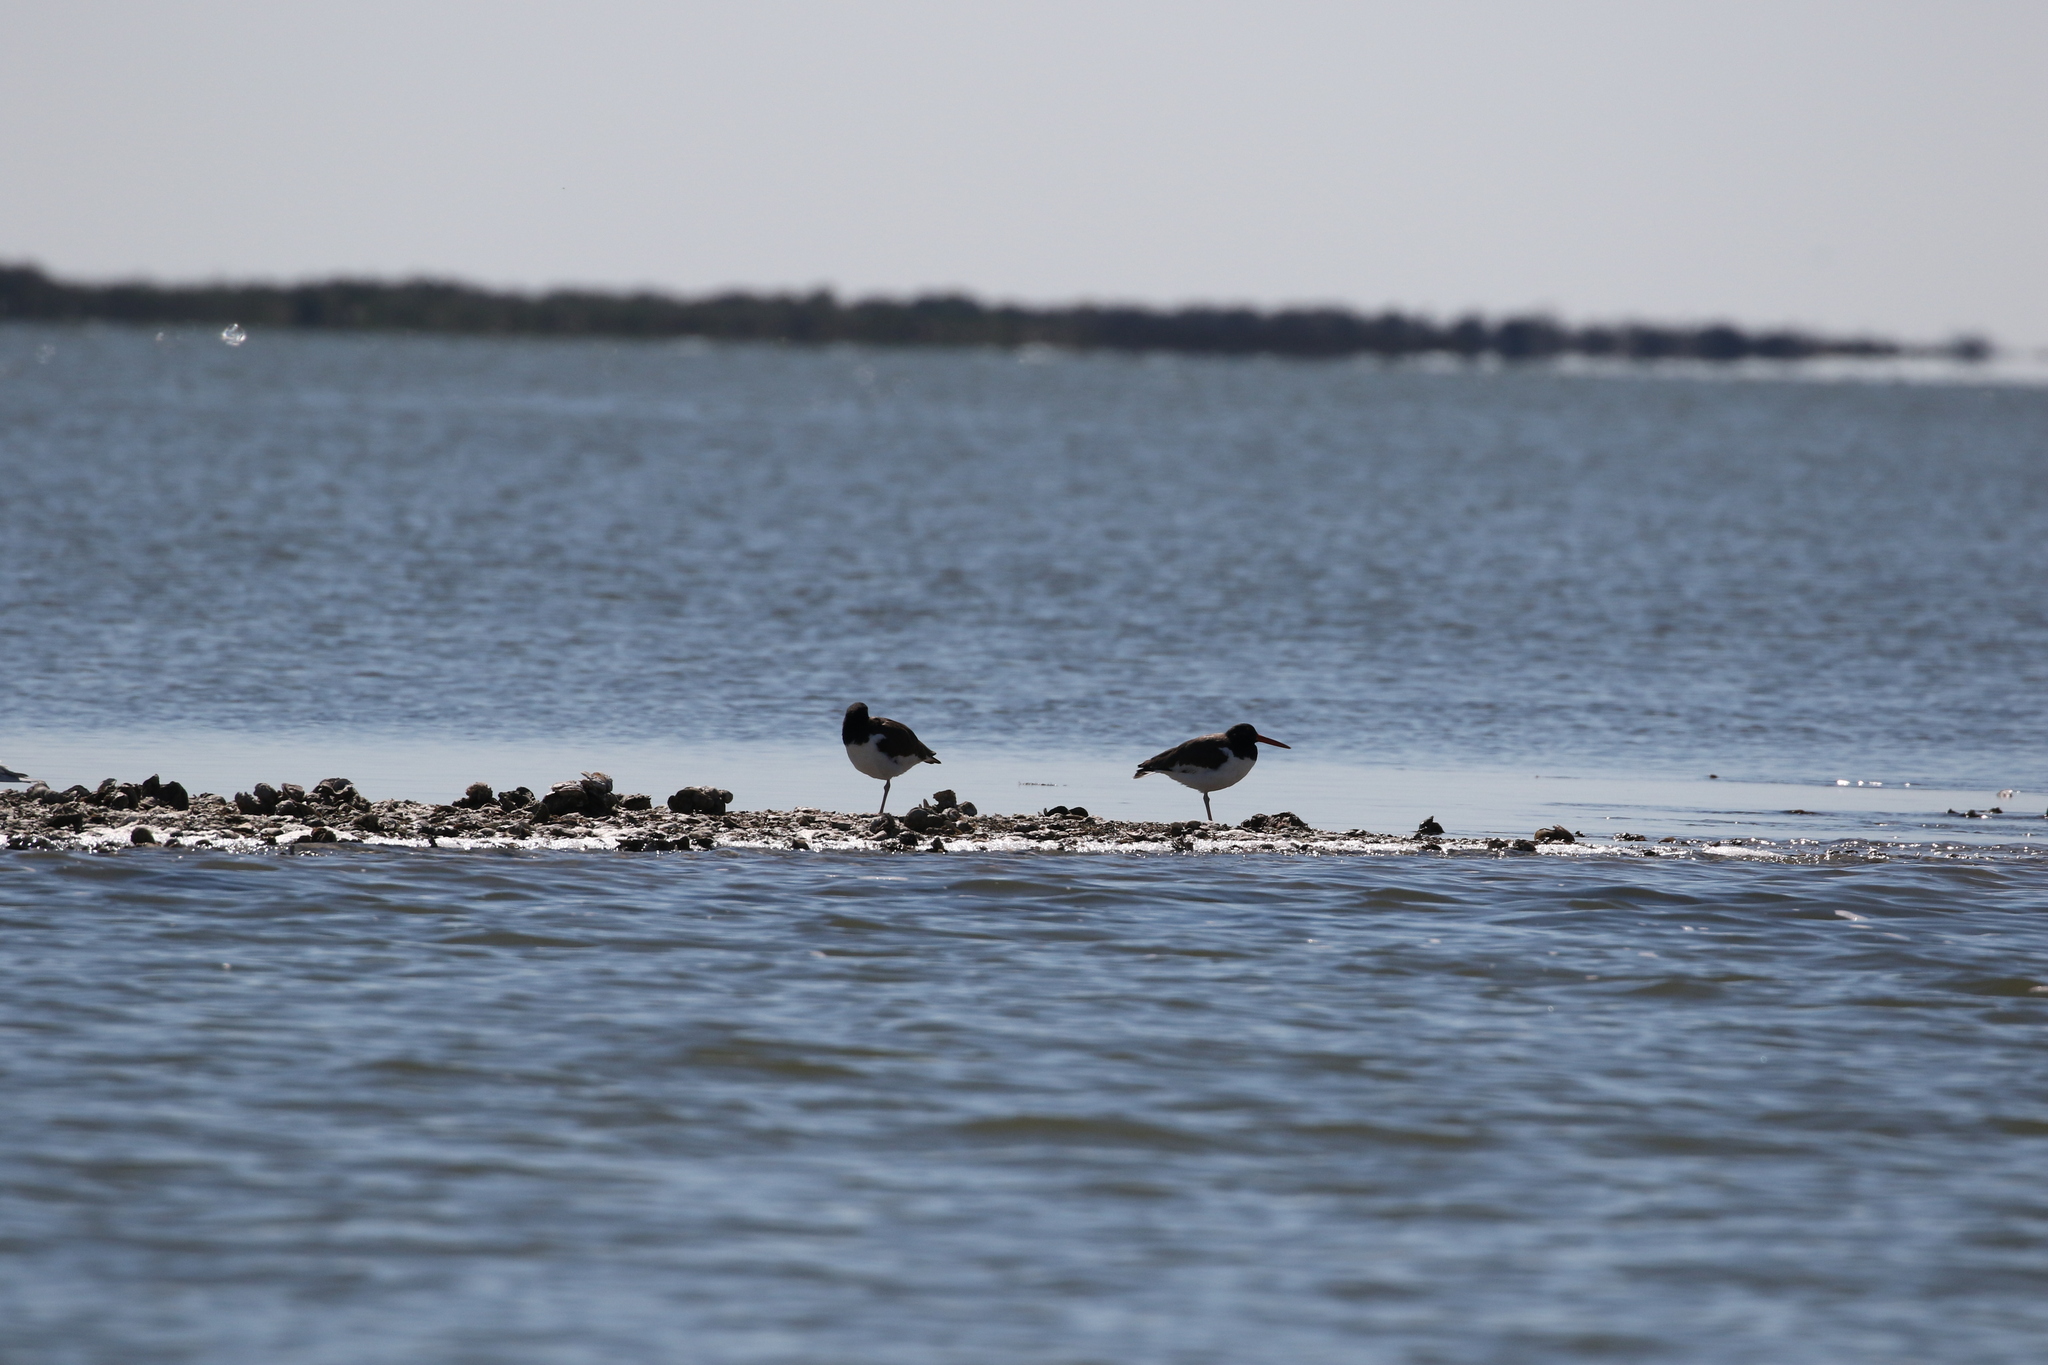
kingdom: Animalia
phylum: Chordata
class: Aves
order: Charadriiformes
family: Haematopodidae
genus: Haematopus
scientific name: Haematopus palliatus
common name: American oystercatcher
